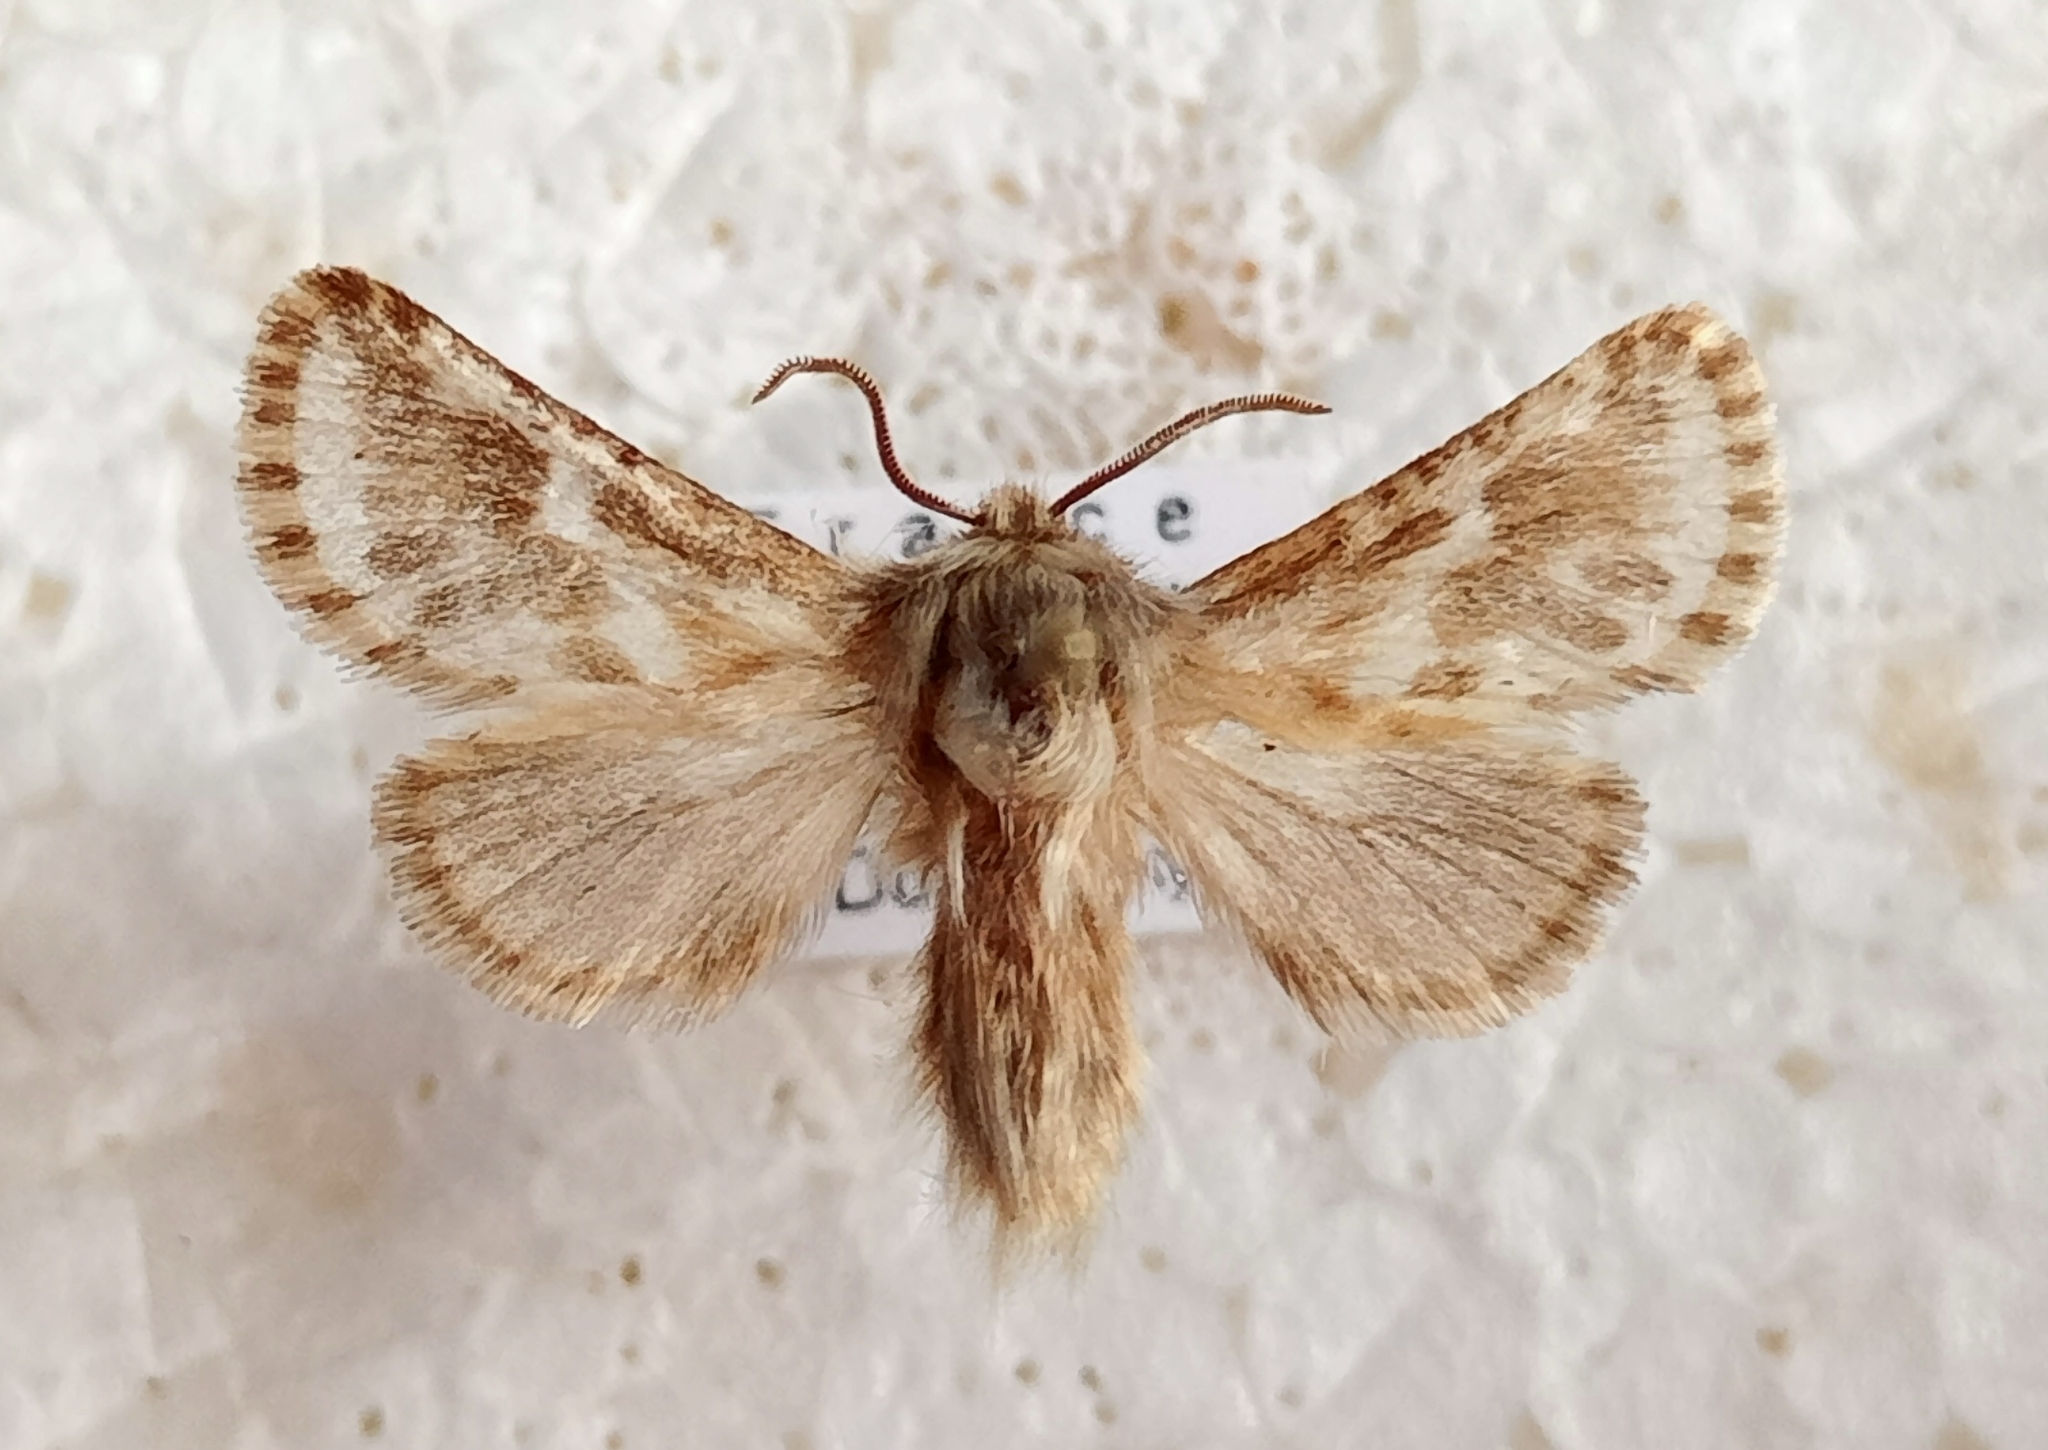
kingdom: Animalia
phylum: Arthropoda
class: Insecta
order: Lepidoptera
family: Cossidae
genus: Dyspessa
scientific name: Dyspessa ulula
